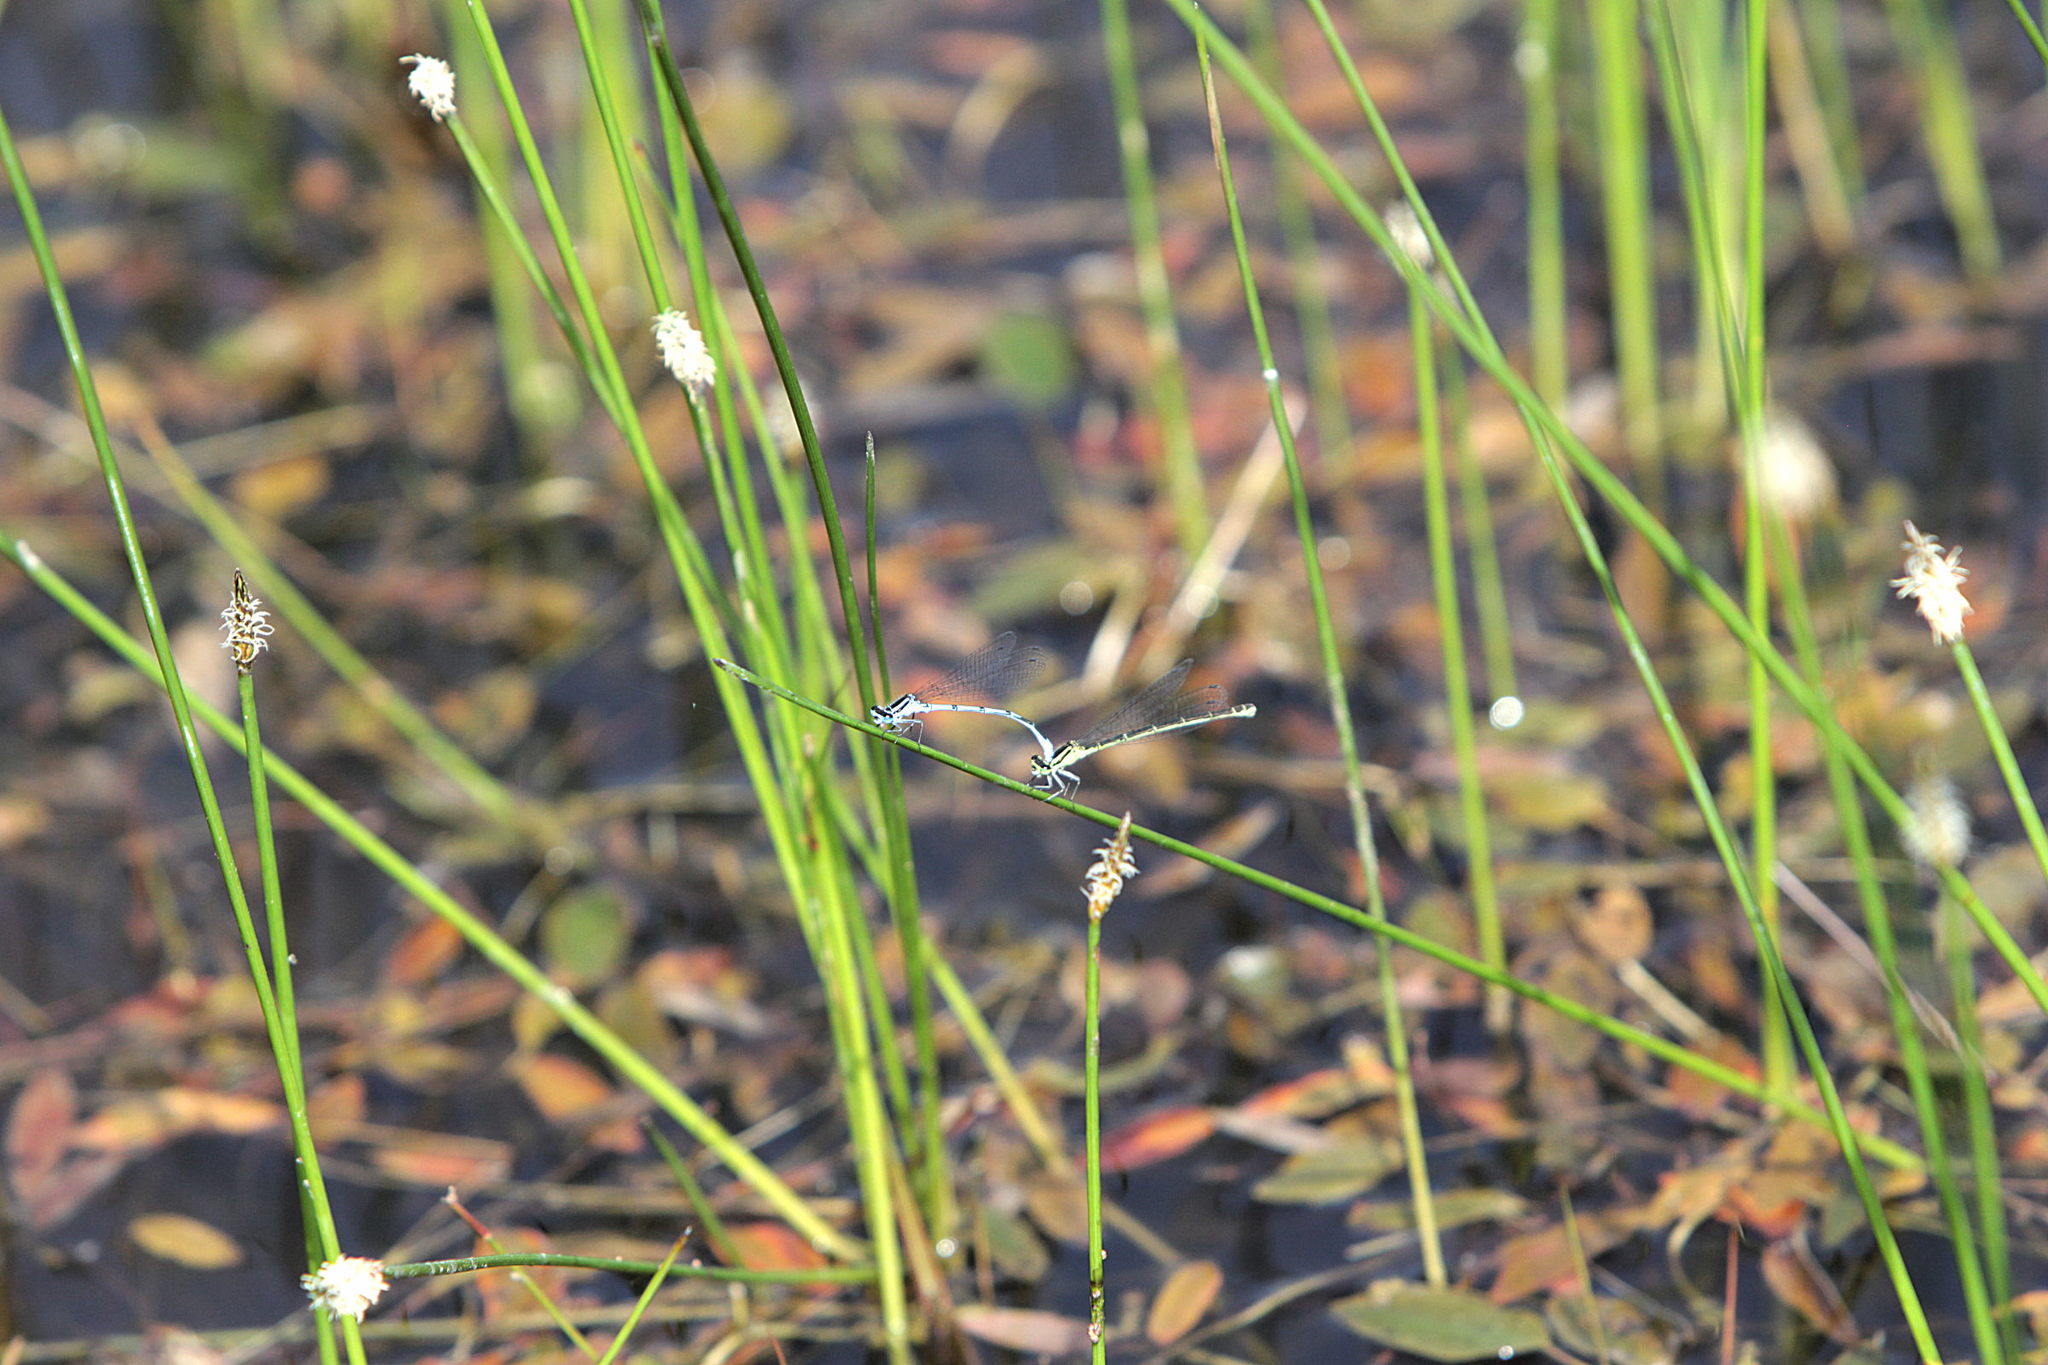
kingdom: Animalia
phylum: Arthropoda
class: Insecta
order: Odonata
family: Coenagrionidae
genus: Coenagrion
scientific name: Coenagrion puella
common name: Azure damselfly
